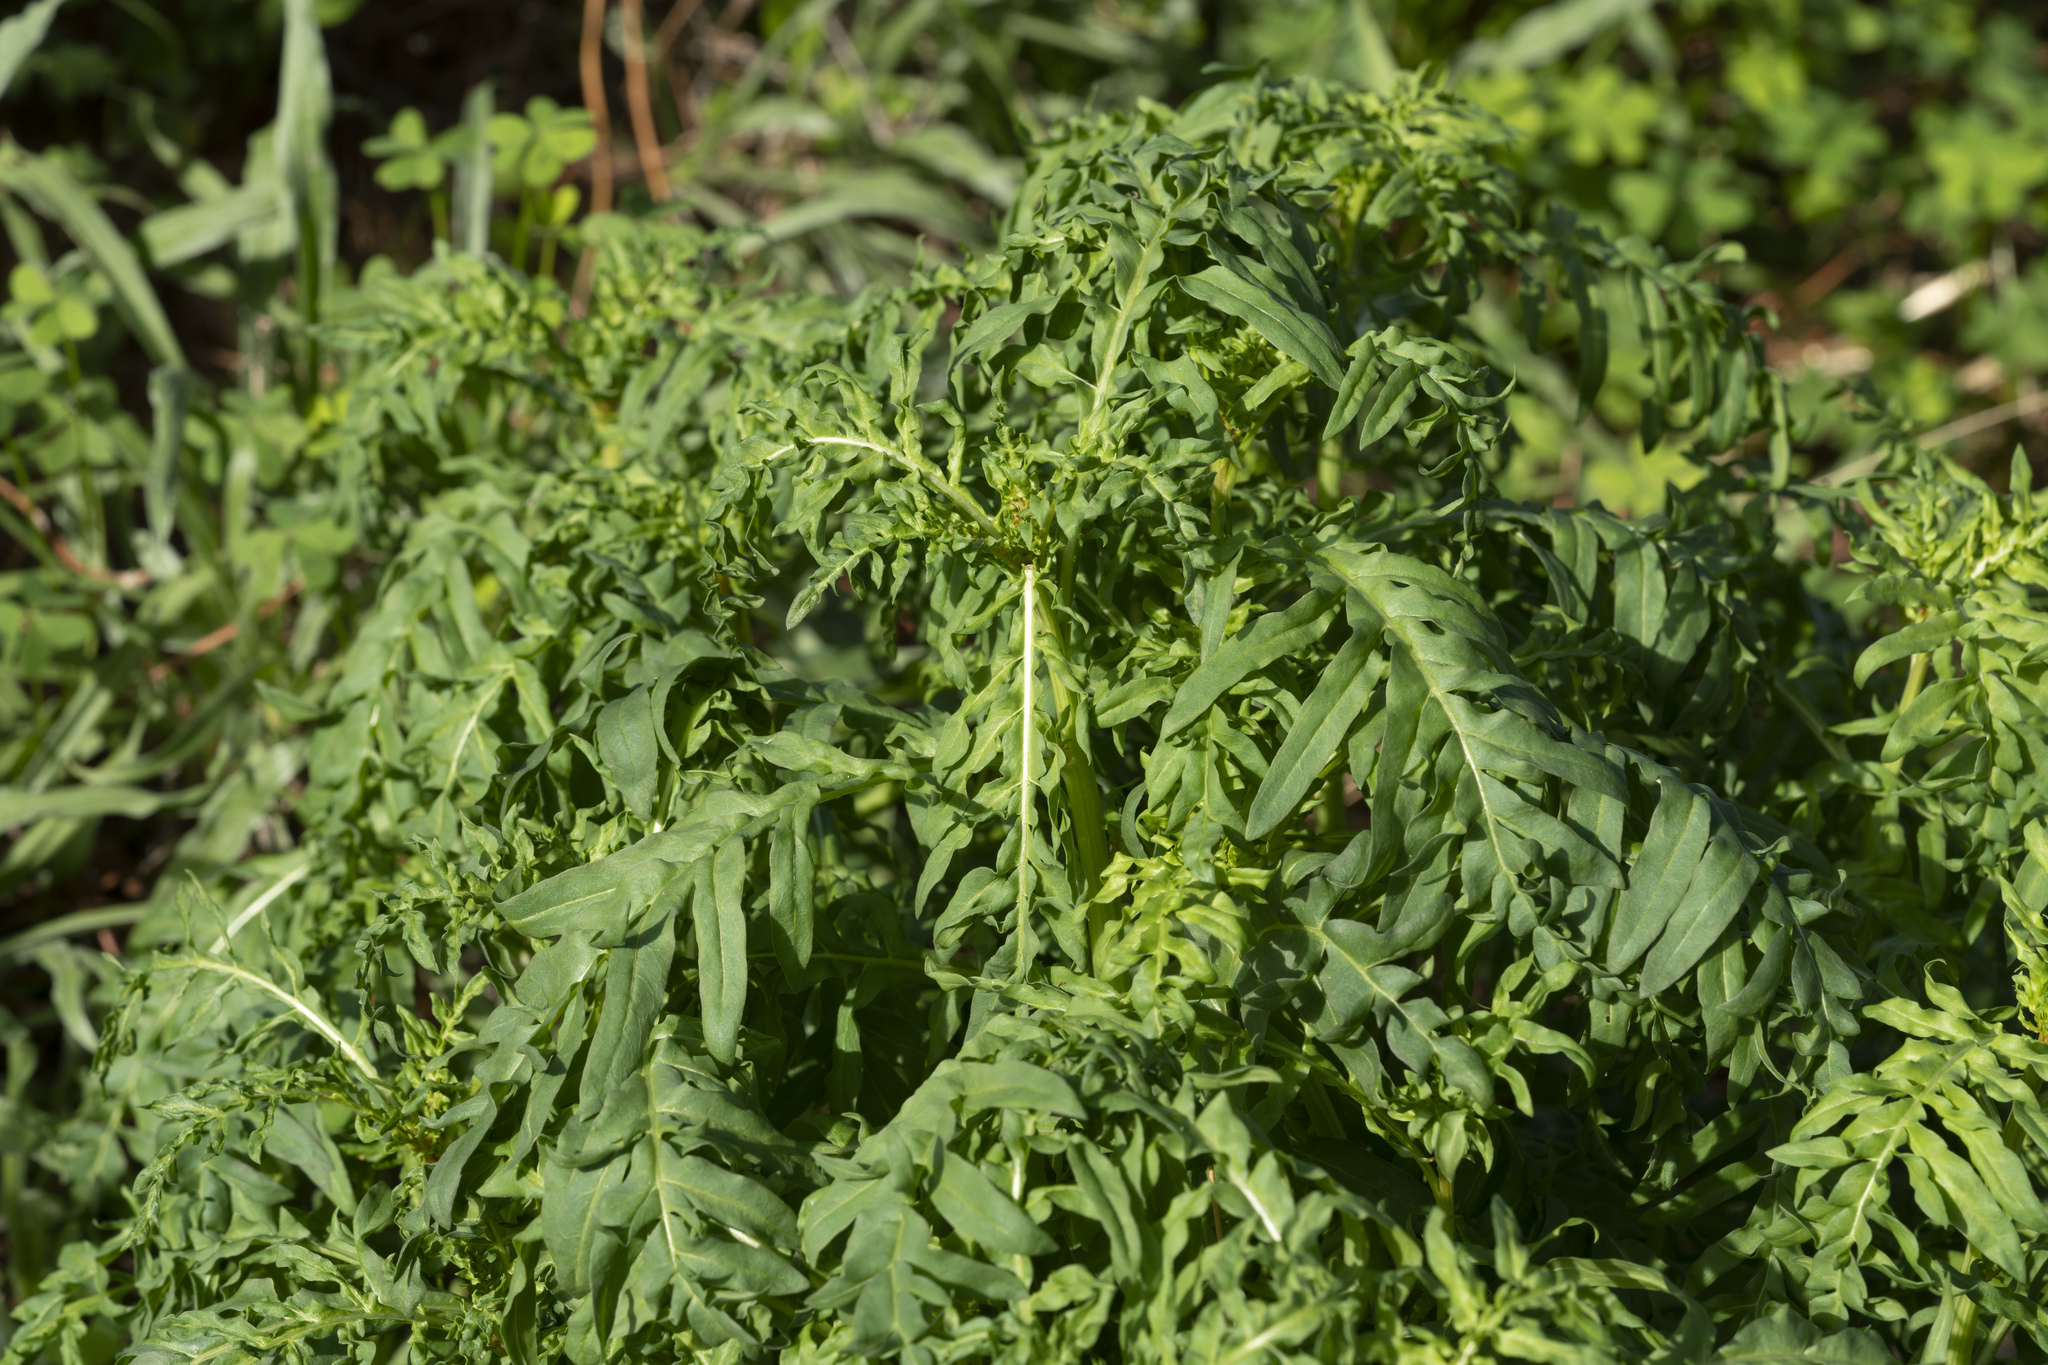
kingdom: Plantae
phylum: Tracheophyta
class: Magnoliopsida
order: Brassicales
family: Resedaceae
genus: Reseda
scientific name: Reseda alba
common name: White mignonette
